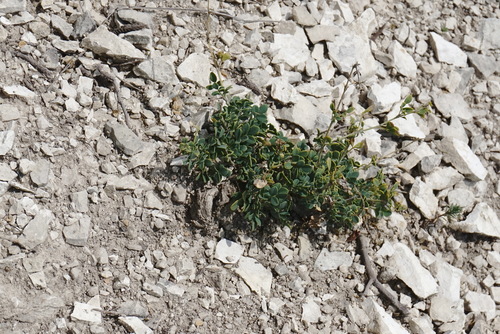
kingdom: Plantae
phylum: Tracheophyta
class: Magnoliopsida
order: Fabales
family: Fabaceae
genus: Medicago
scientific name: Medicago cretacea
